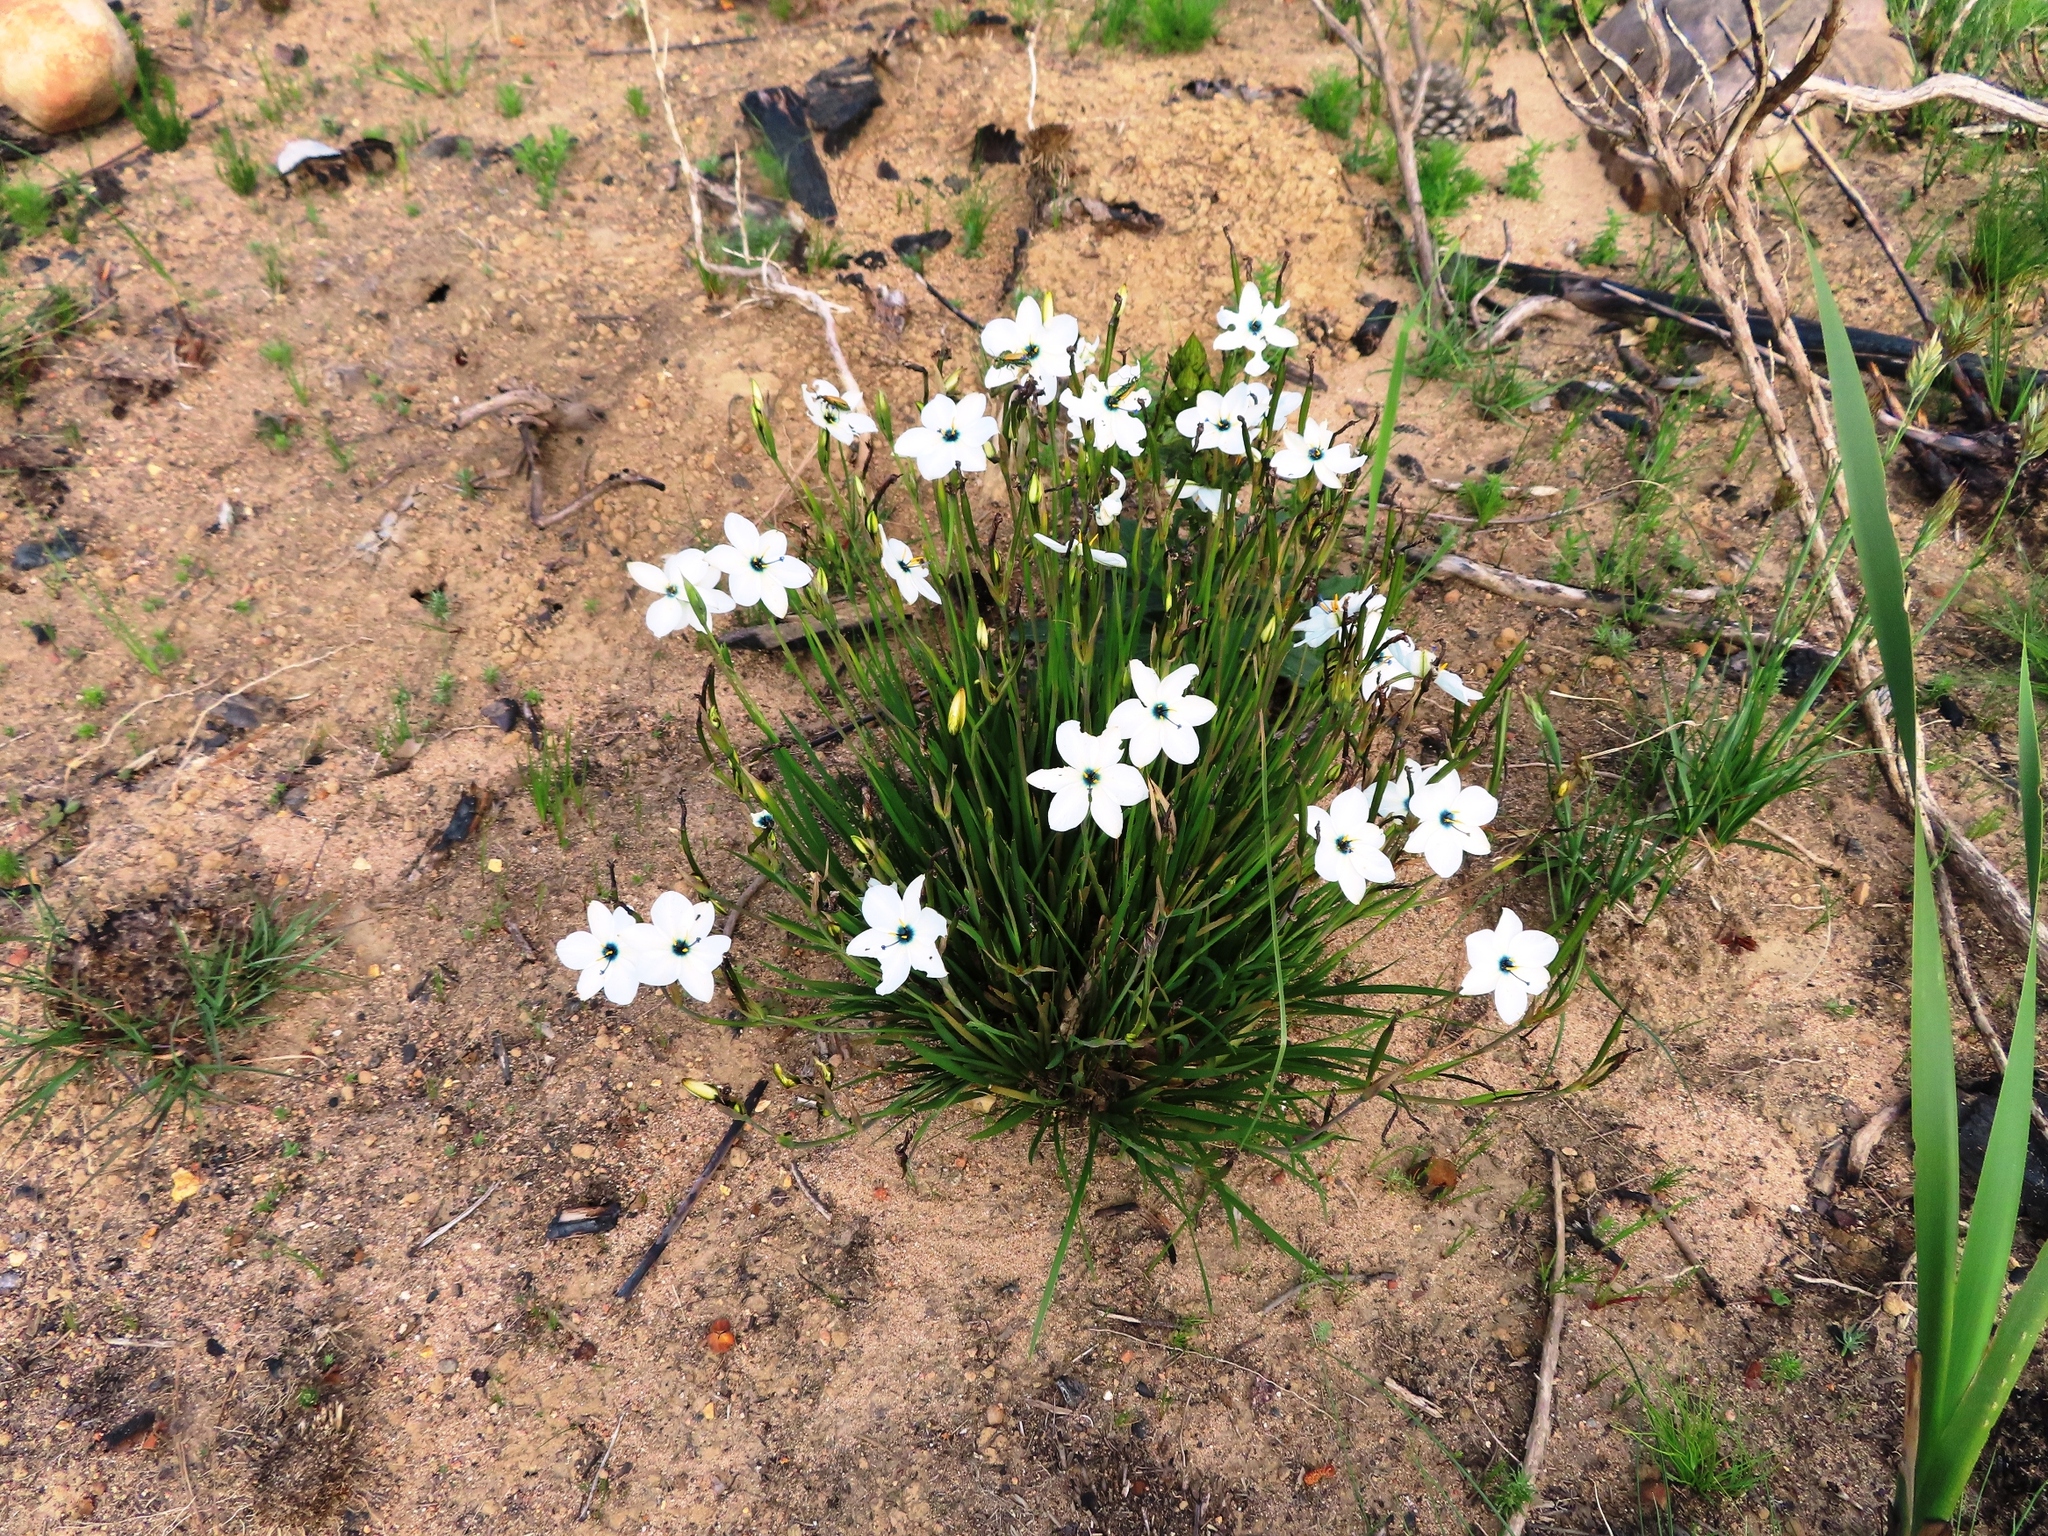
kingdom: Plantae
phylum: Tracheophyta
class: Liliopsida
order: Asparagales
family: Iridaceae
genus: Aristea
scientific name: Aristea cantharophila
